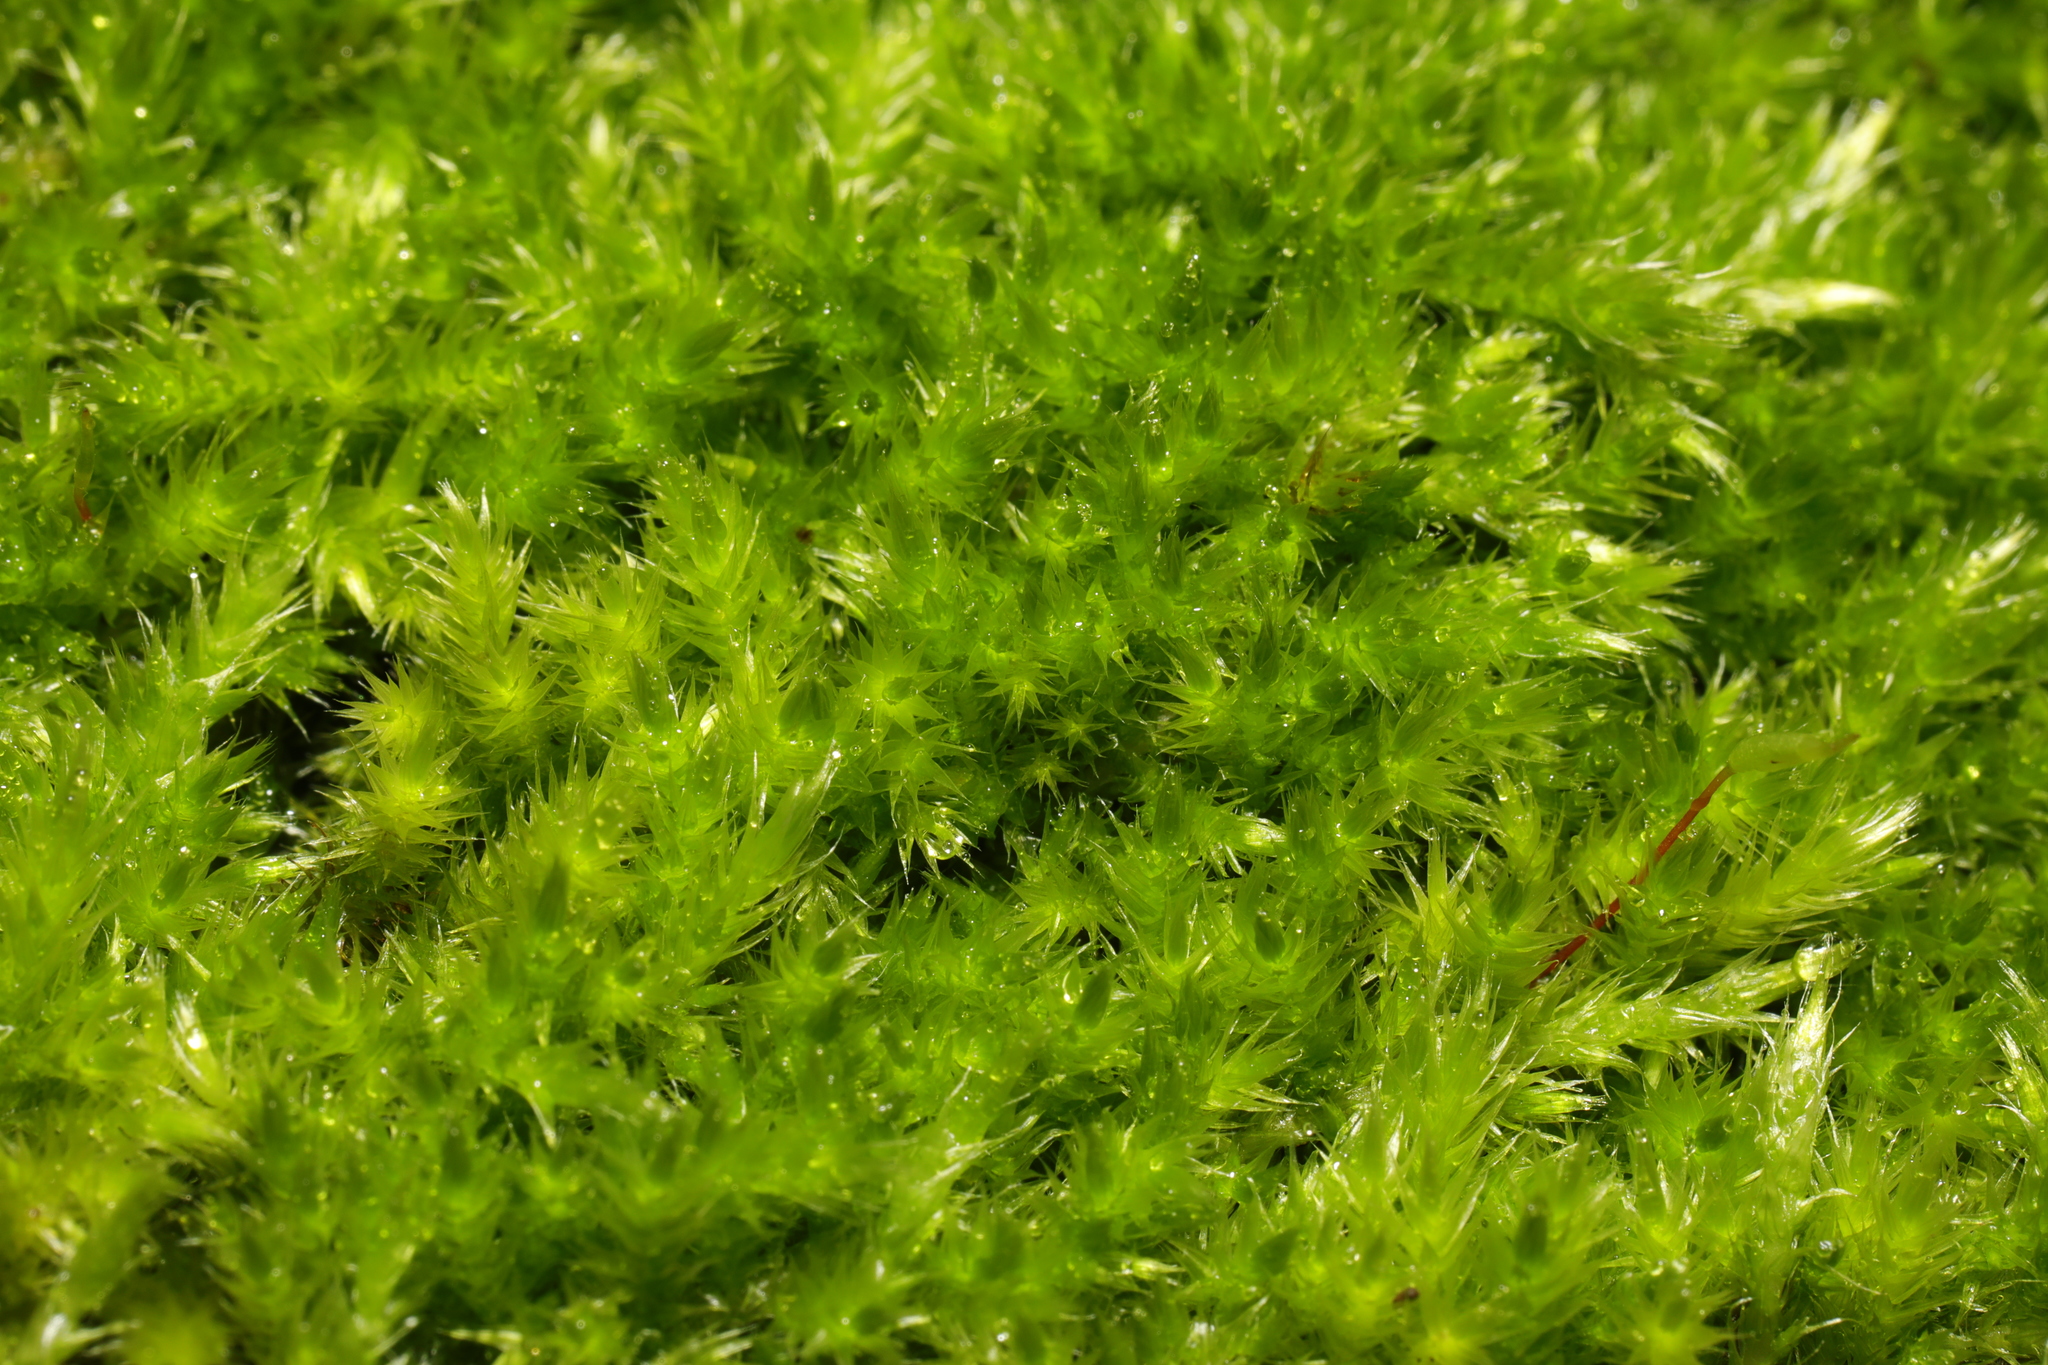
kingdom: Plantae
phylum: Bryophyta
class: Bryopsida
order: Hypnales
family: Brachytheciaceae
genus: Homalothecium
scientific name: Homalothecium sericeum
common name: Silky wall feather-moss
